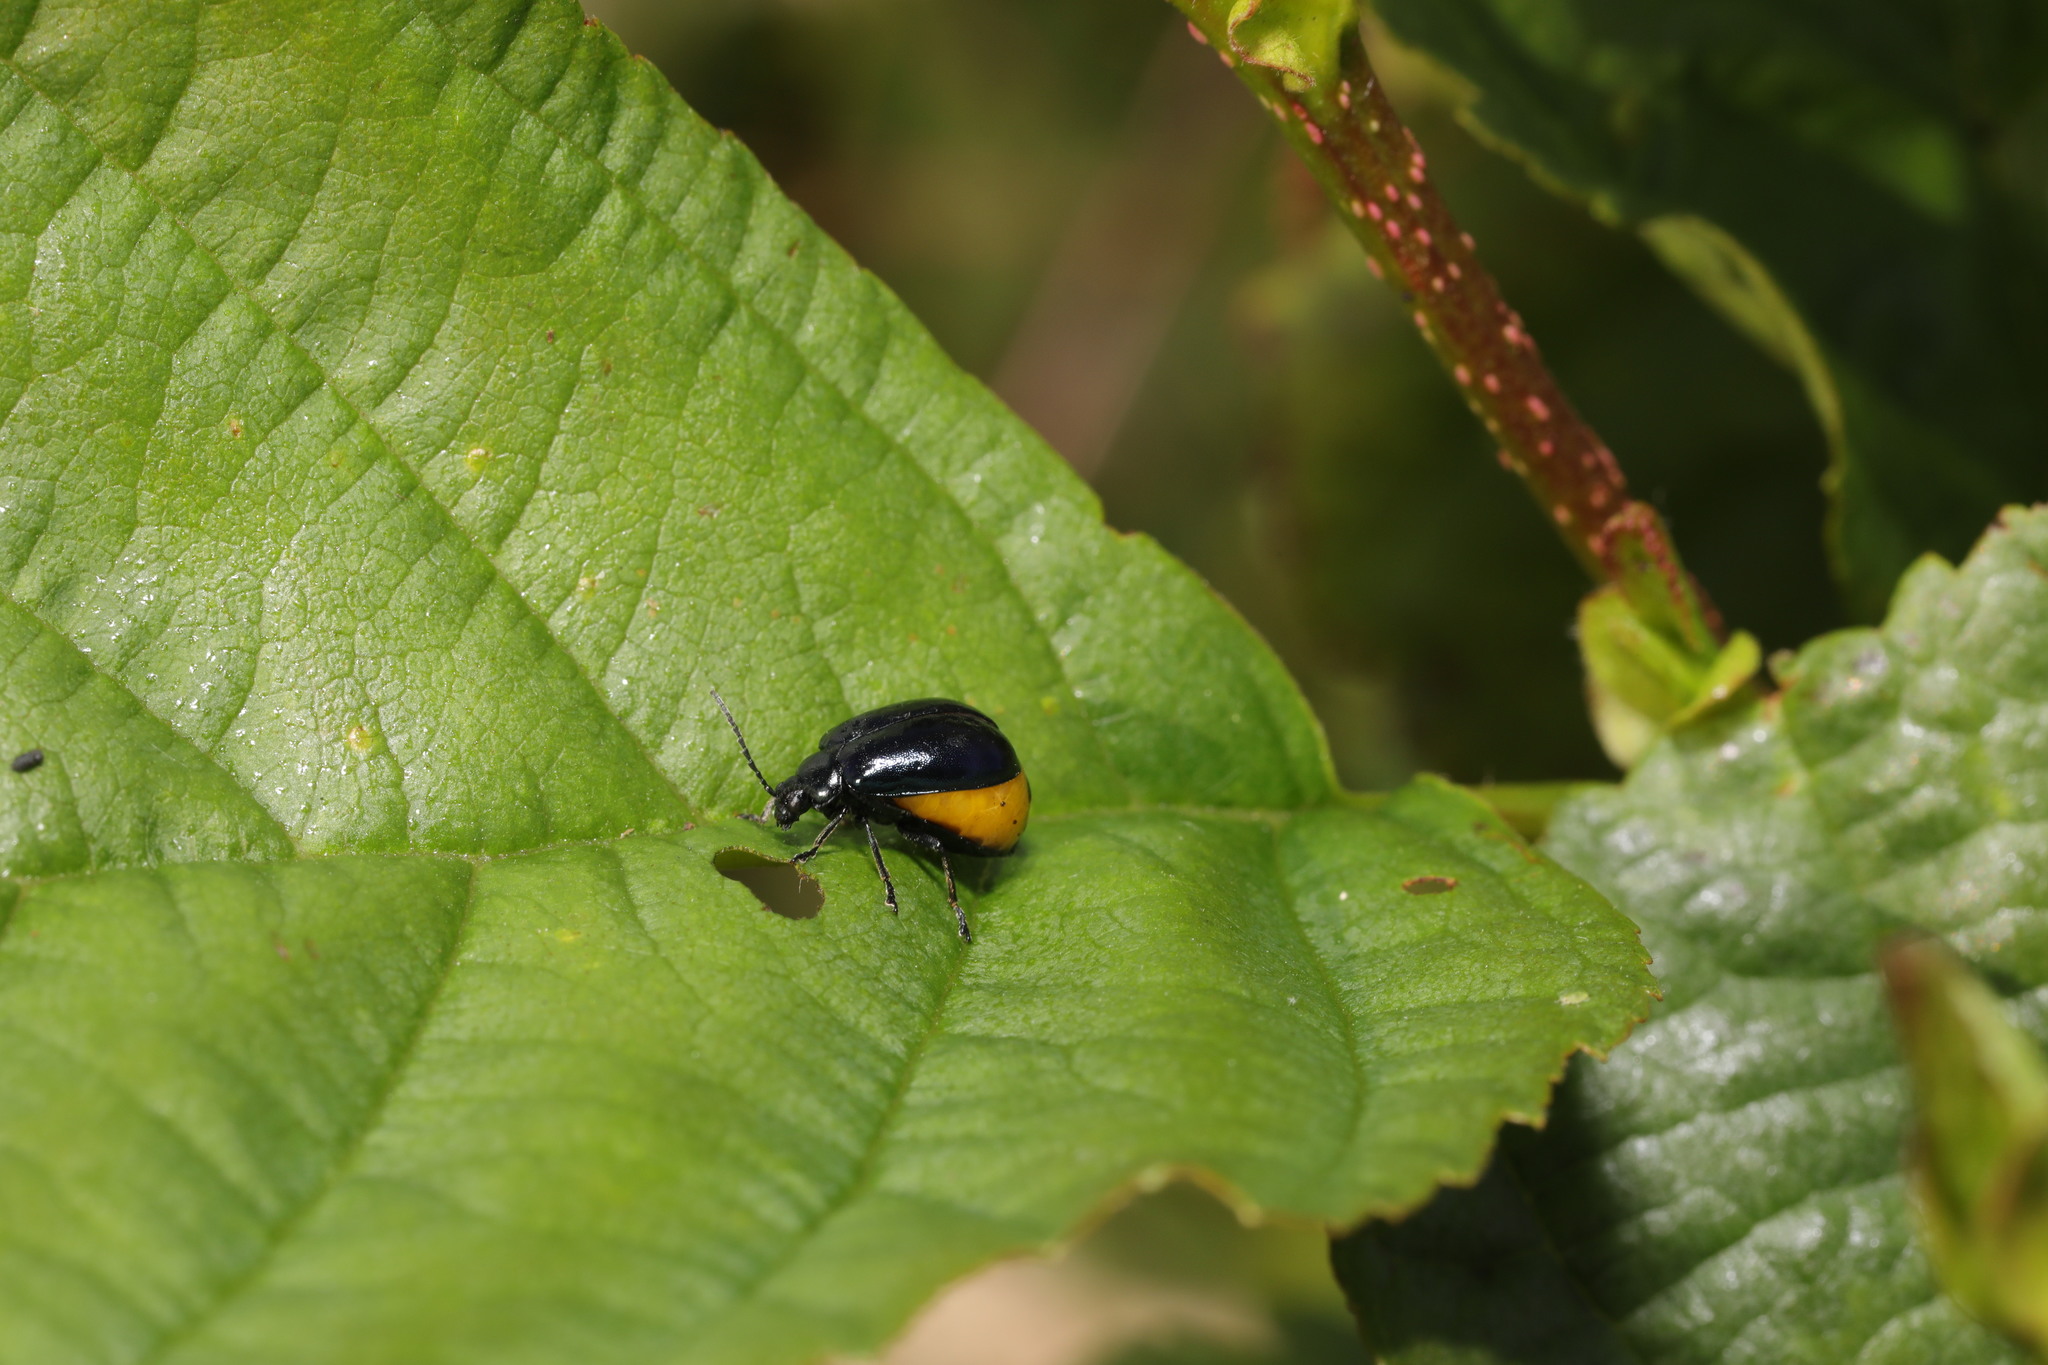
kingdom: Animalia
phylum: Arthropoda
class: Insecta
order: Coleoptera
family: Chrysomelidae
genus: Agelastica
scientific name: Agelastica alni
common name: Alder leaf beetle
